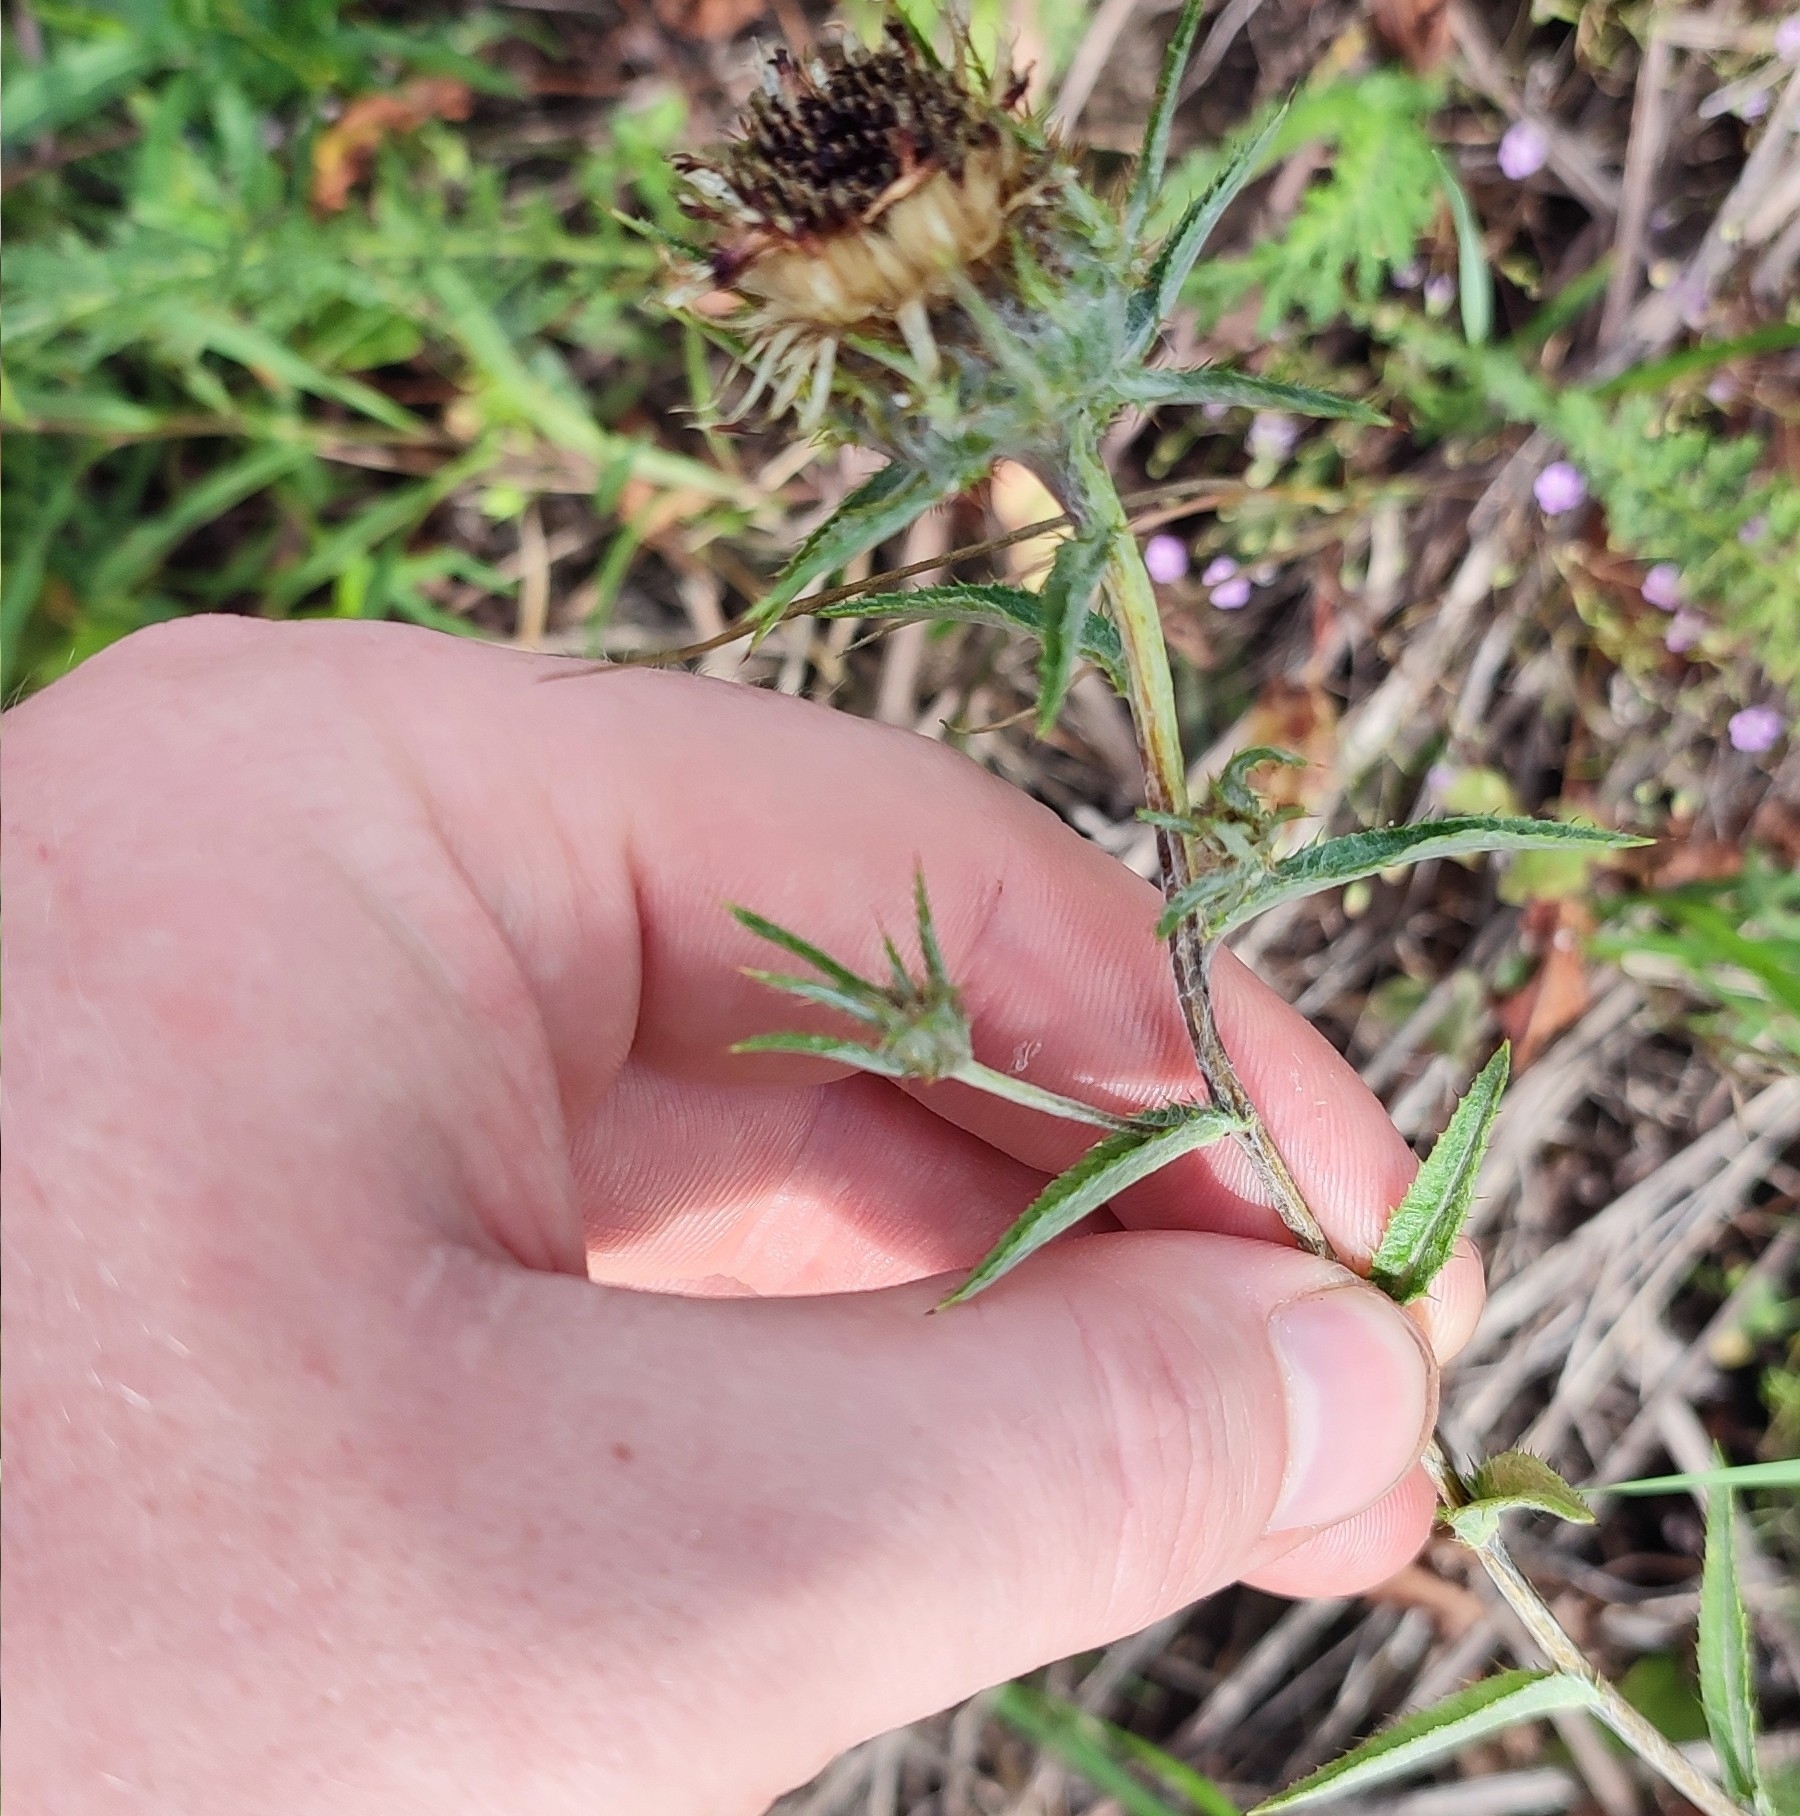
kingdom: Plantae
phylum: Tracheophyta
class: Magnoliopsida
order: Asterales
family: Asteraceae
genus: Carlina
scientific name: Carlina biebersteinii
